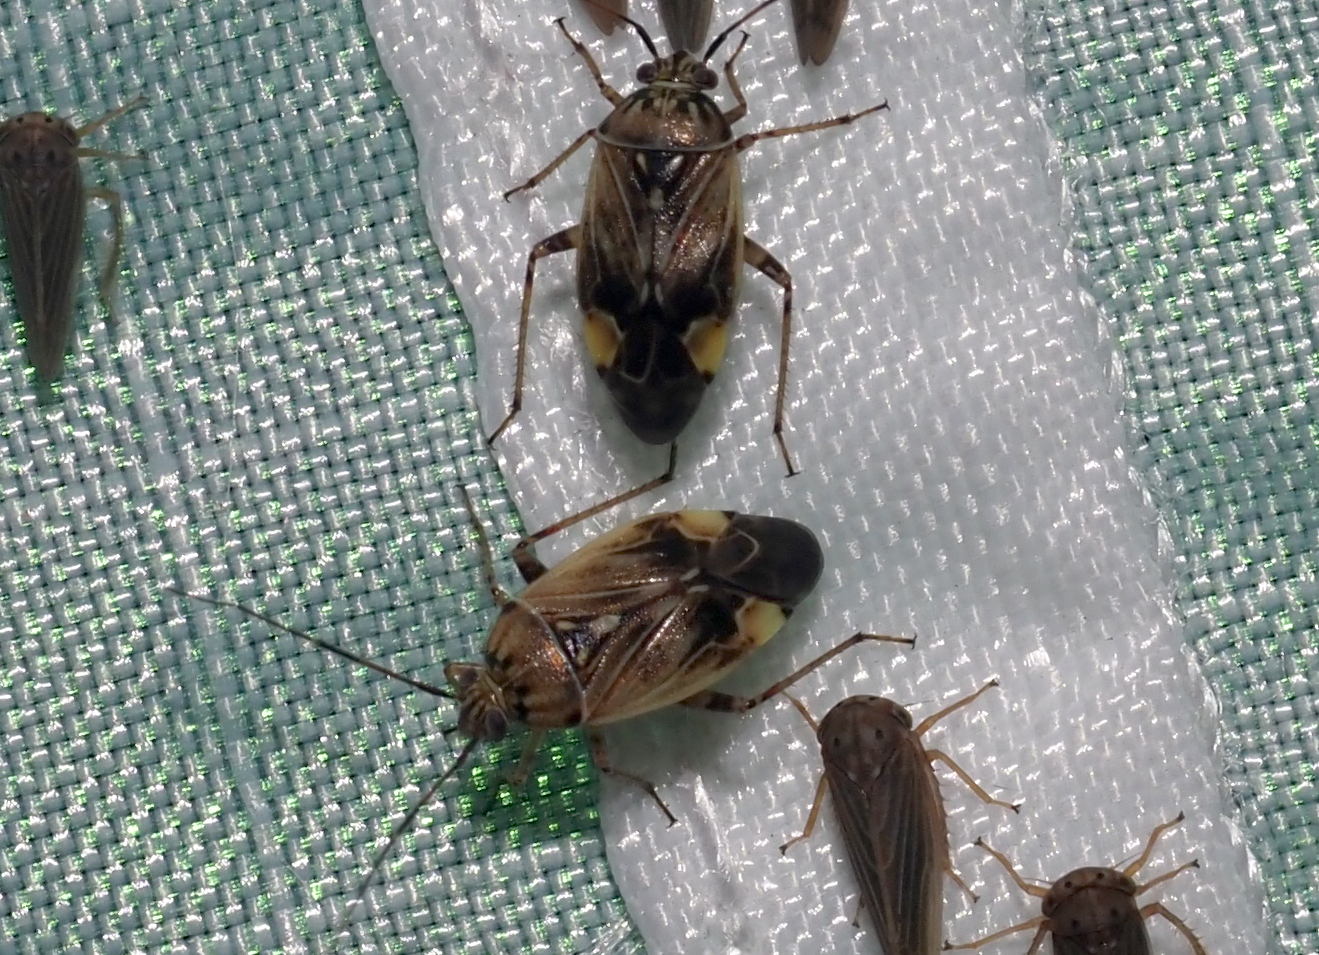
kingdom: Animalia
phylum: Arthropoda
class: Insecta
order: Hemiptera
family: Miridae
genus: Lygus
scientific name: Lygus lineolaris
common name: North american tarnished plant bug
